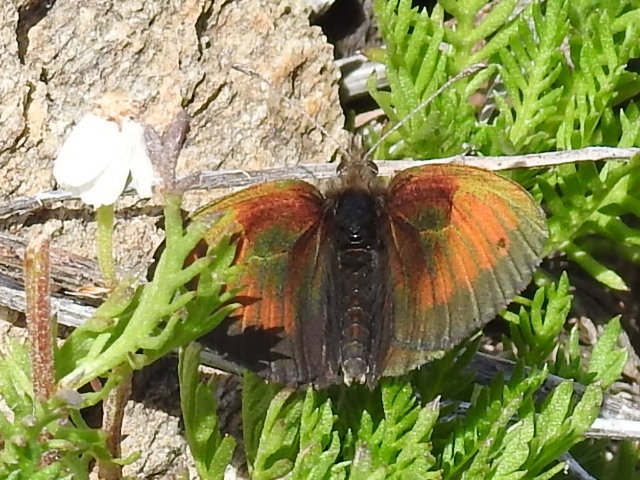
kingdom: Animalia
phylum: Arthropoda
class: Insecta
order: Lepidoptera
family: Nymphalidae
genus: Erebia
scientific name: Erebia tyndarus
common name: Swiss brassy ringlet
